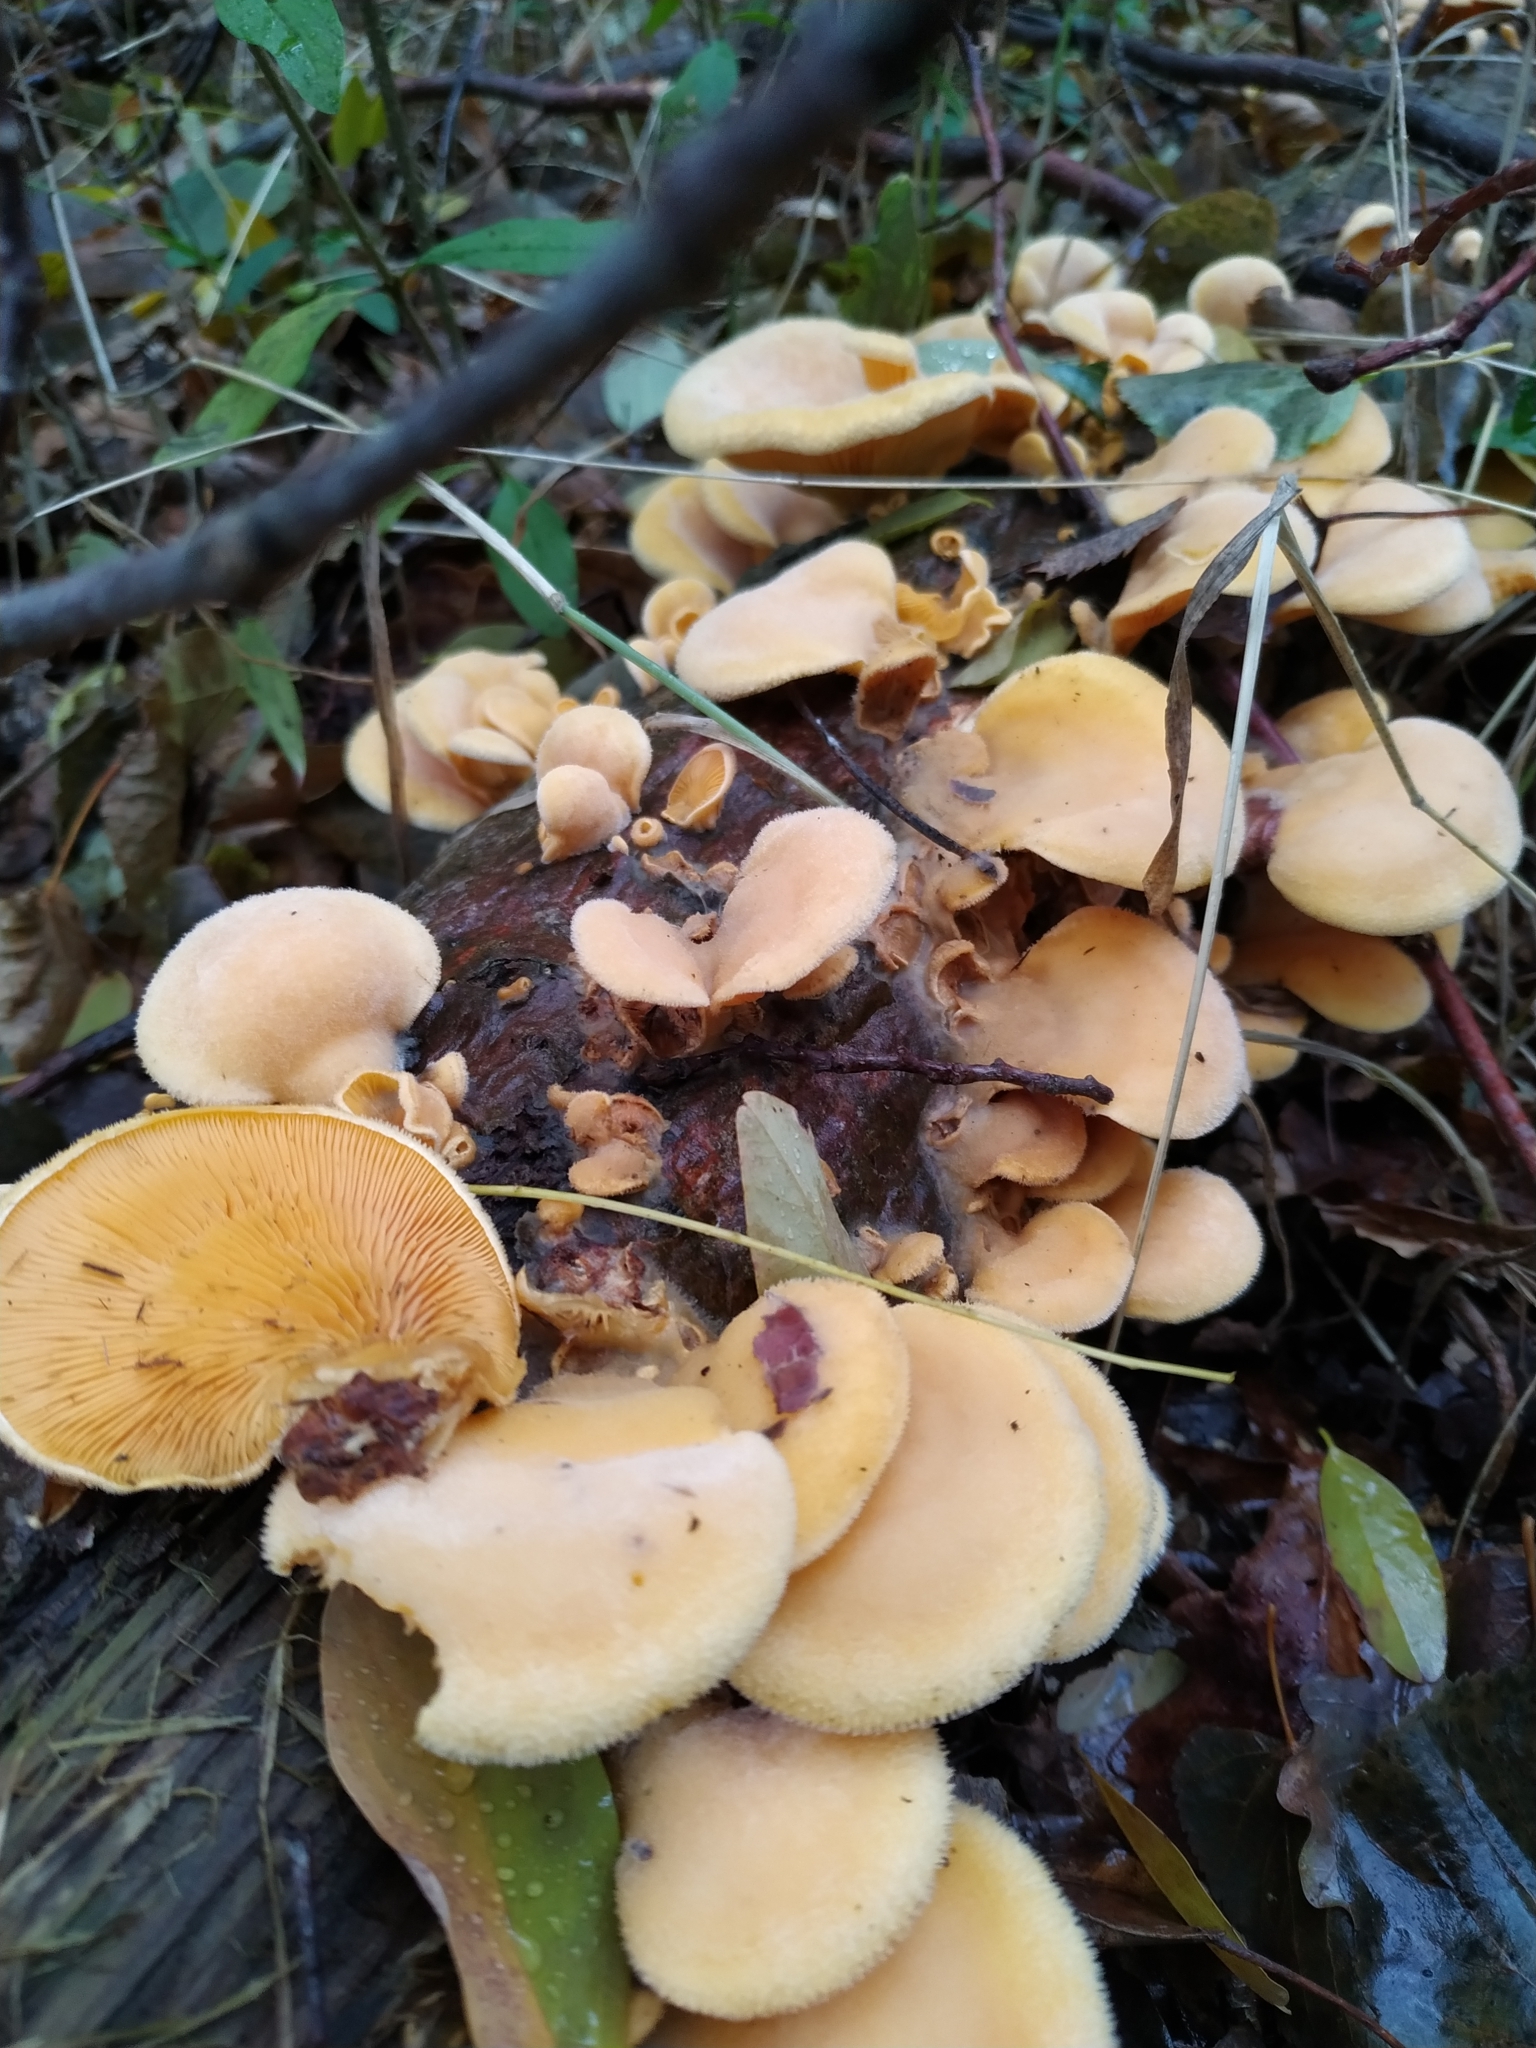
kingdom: Fungi
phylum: Basidiomycota
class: Agaricomycetes
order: Agaricales
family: Phyllotopsidaceae
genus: Phyllotopsis
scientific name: Phyllotopsis nidulans
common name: Orange mock oyster
